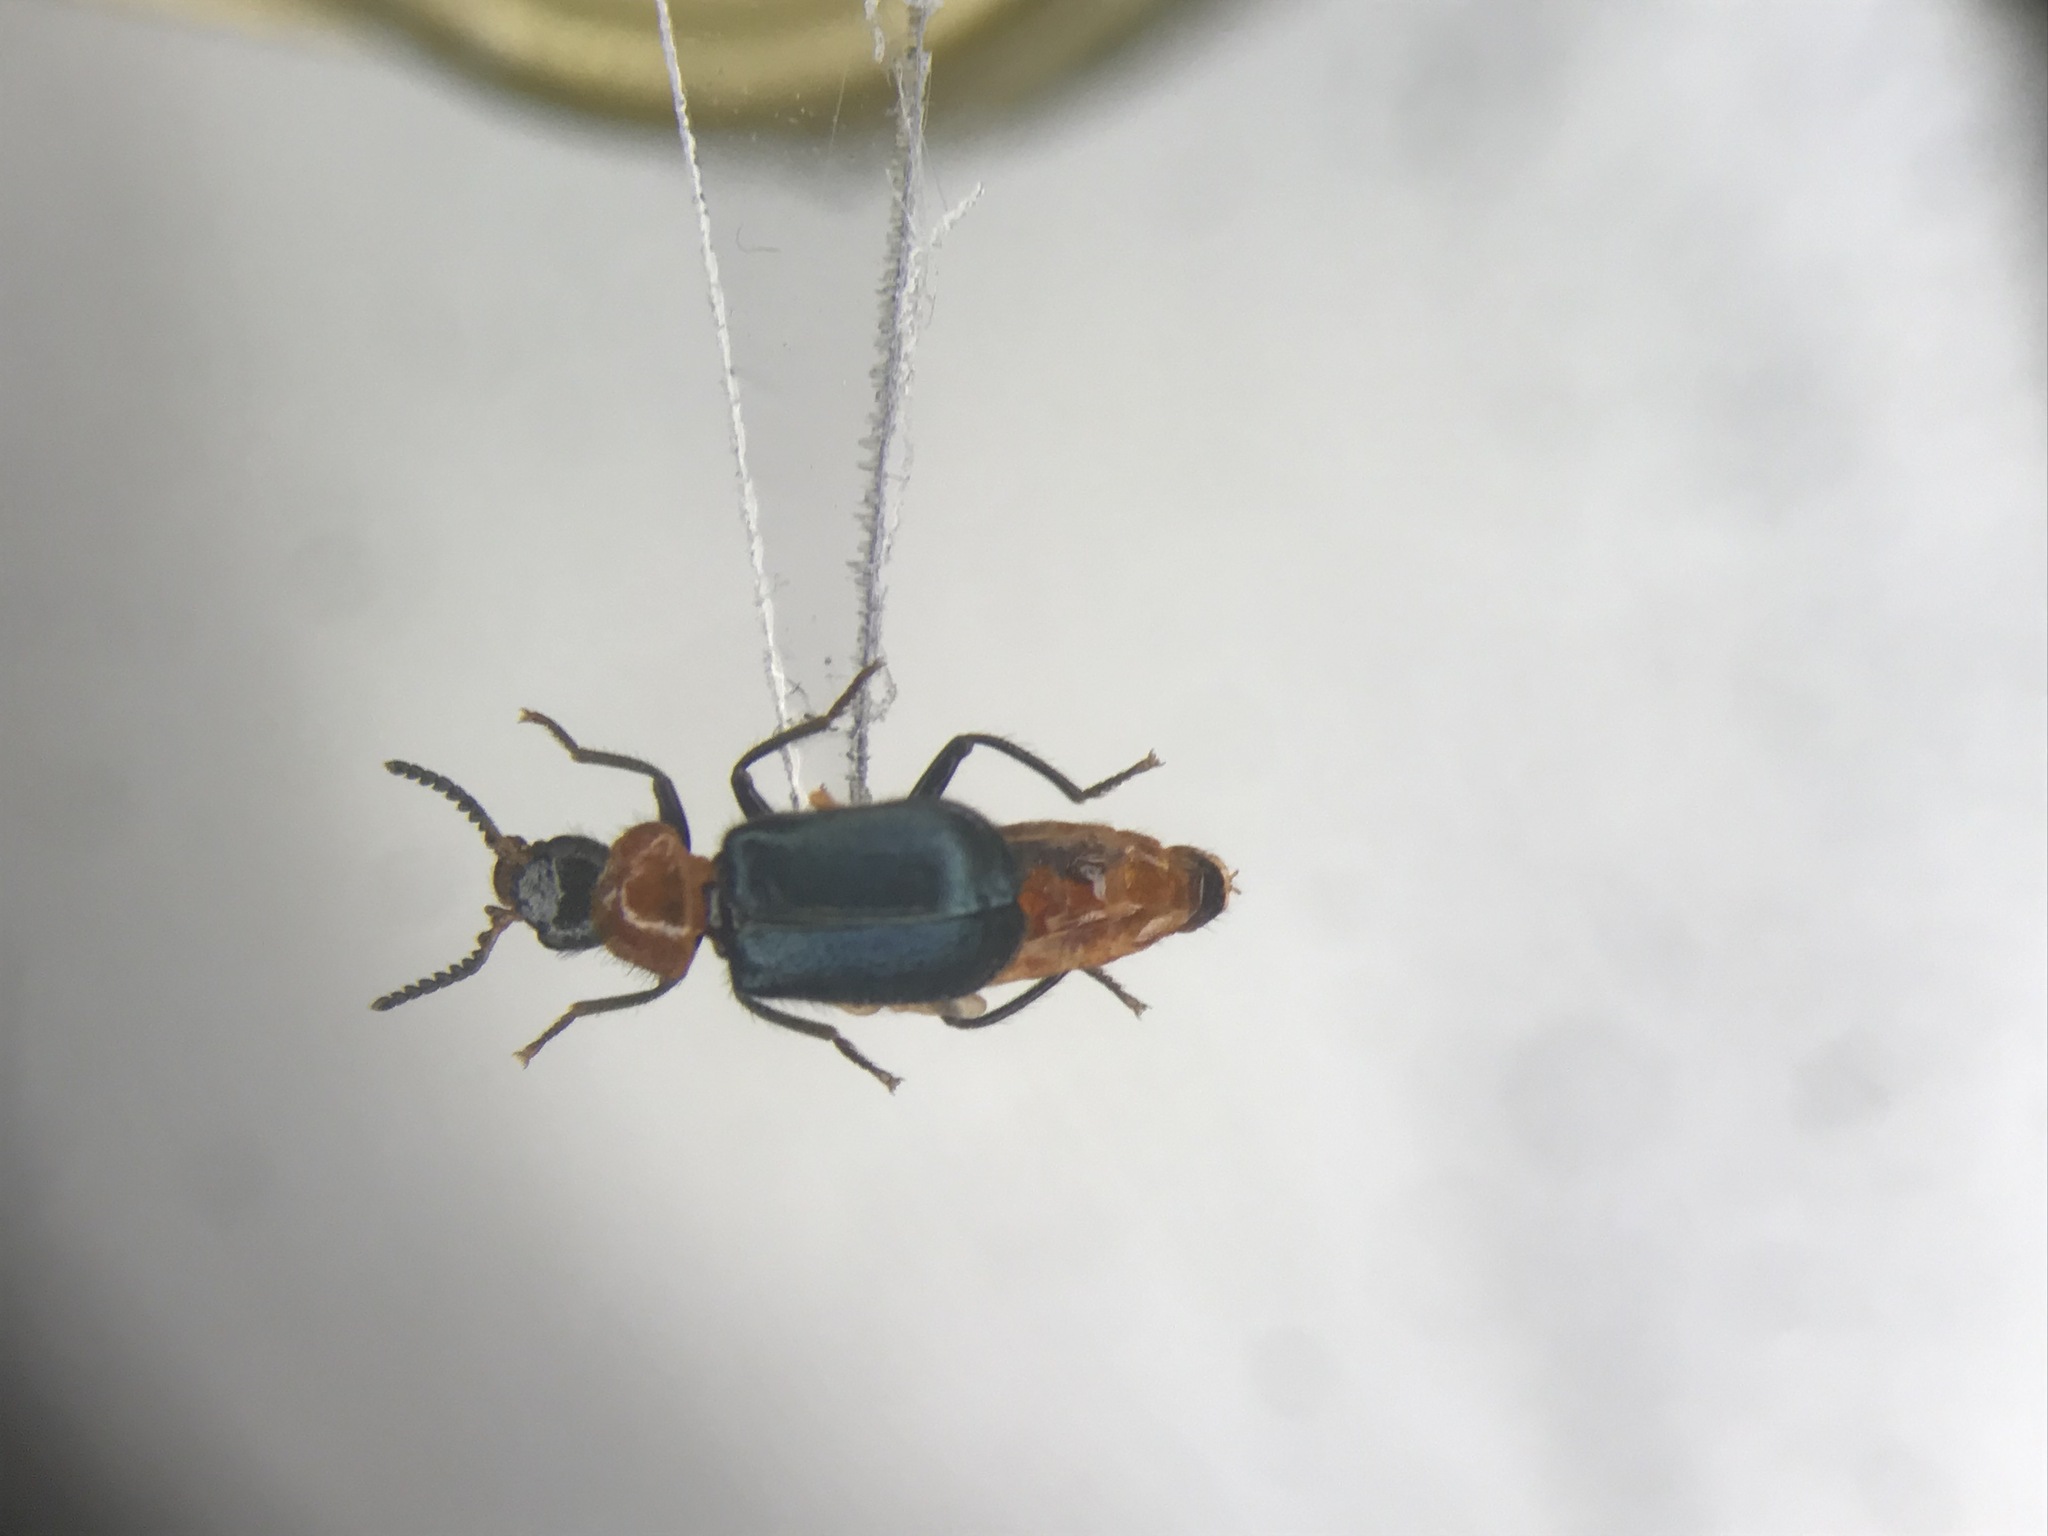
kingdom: Animalia
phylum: Arthropoda
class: Insecta
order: Coleoptera
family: Melyridae
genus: Collops
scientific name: Collops tricolor
